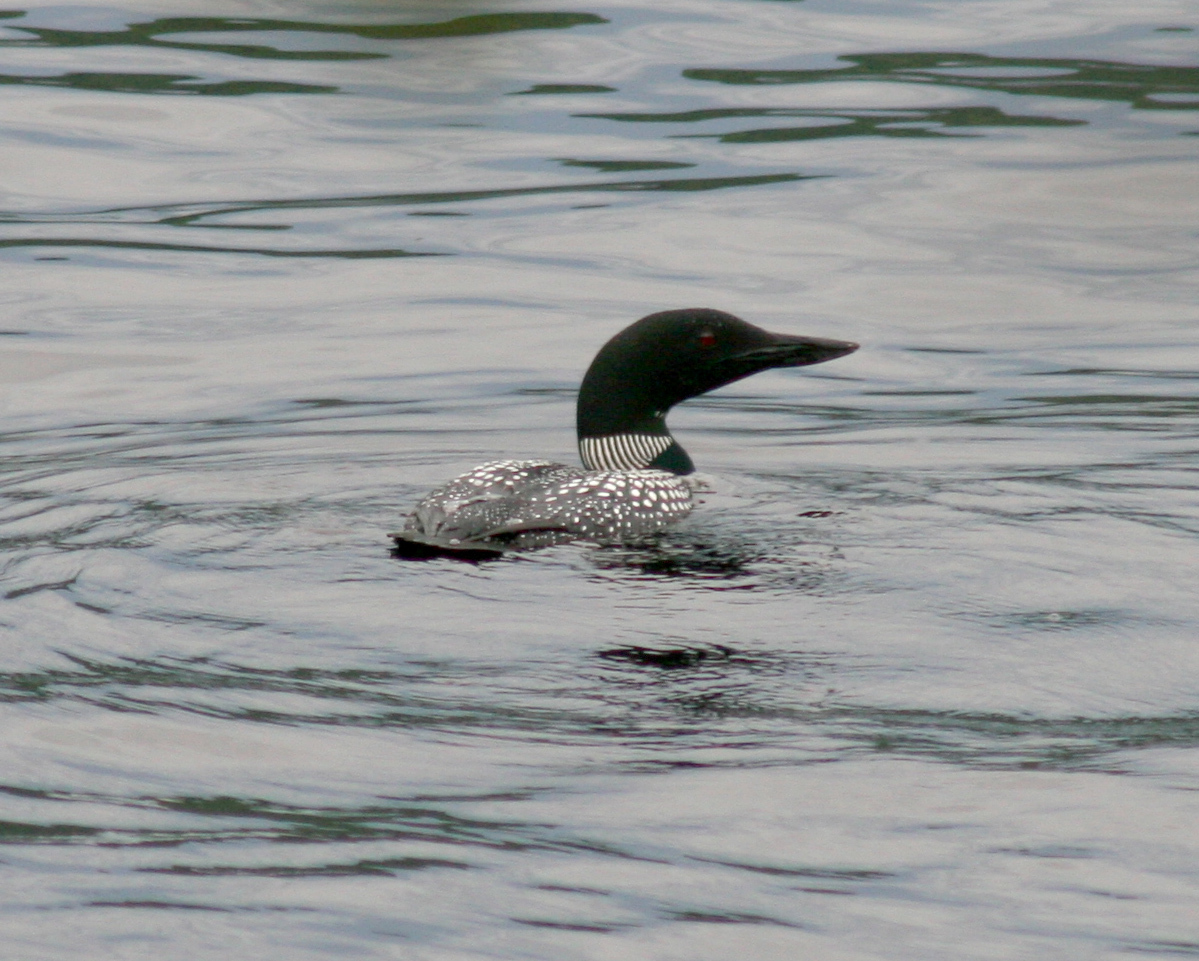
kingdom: Animalia
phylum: Chordata
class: Aves
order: Gaviiformes
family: Gaviidae
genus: Gavia
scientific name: Gavia immer
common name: Common loon
